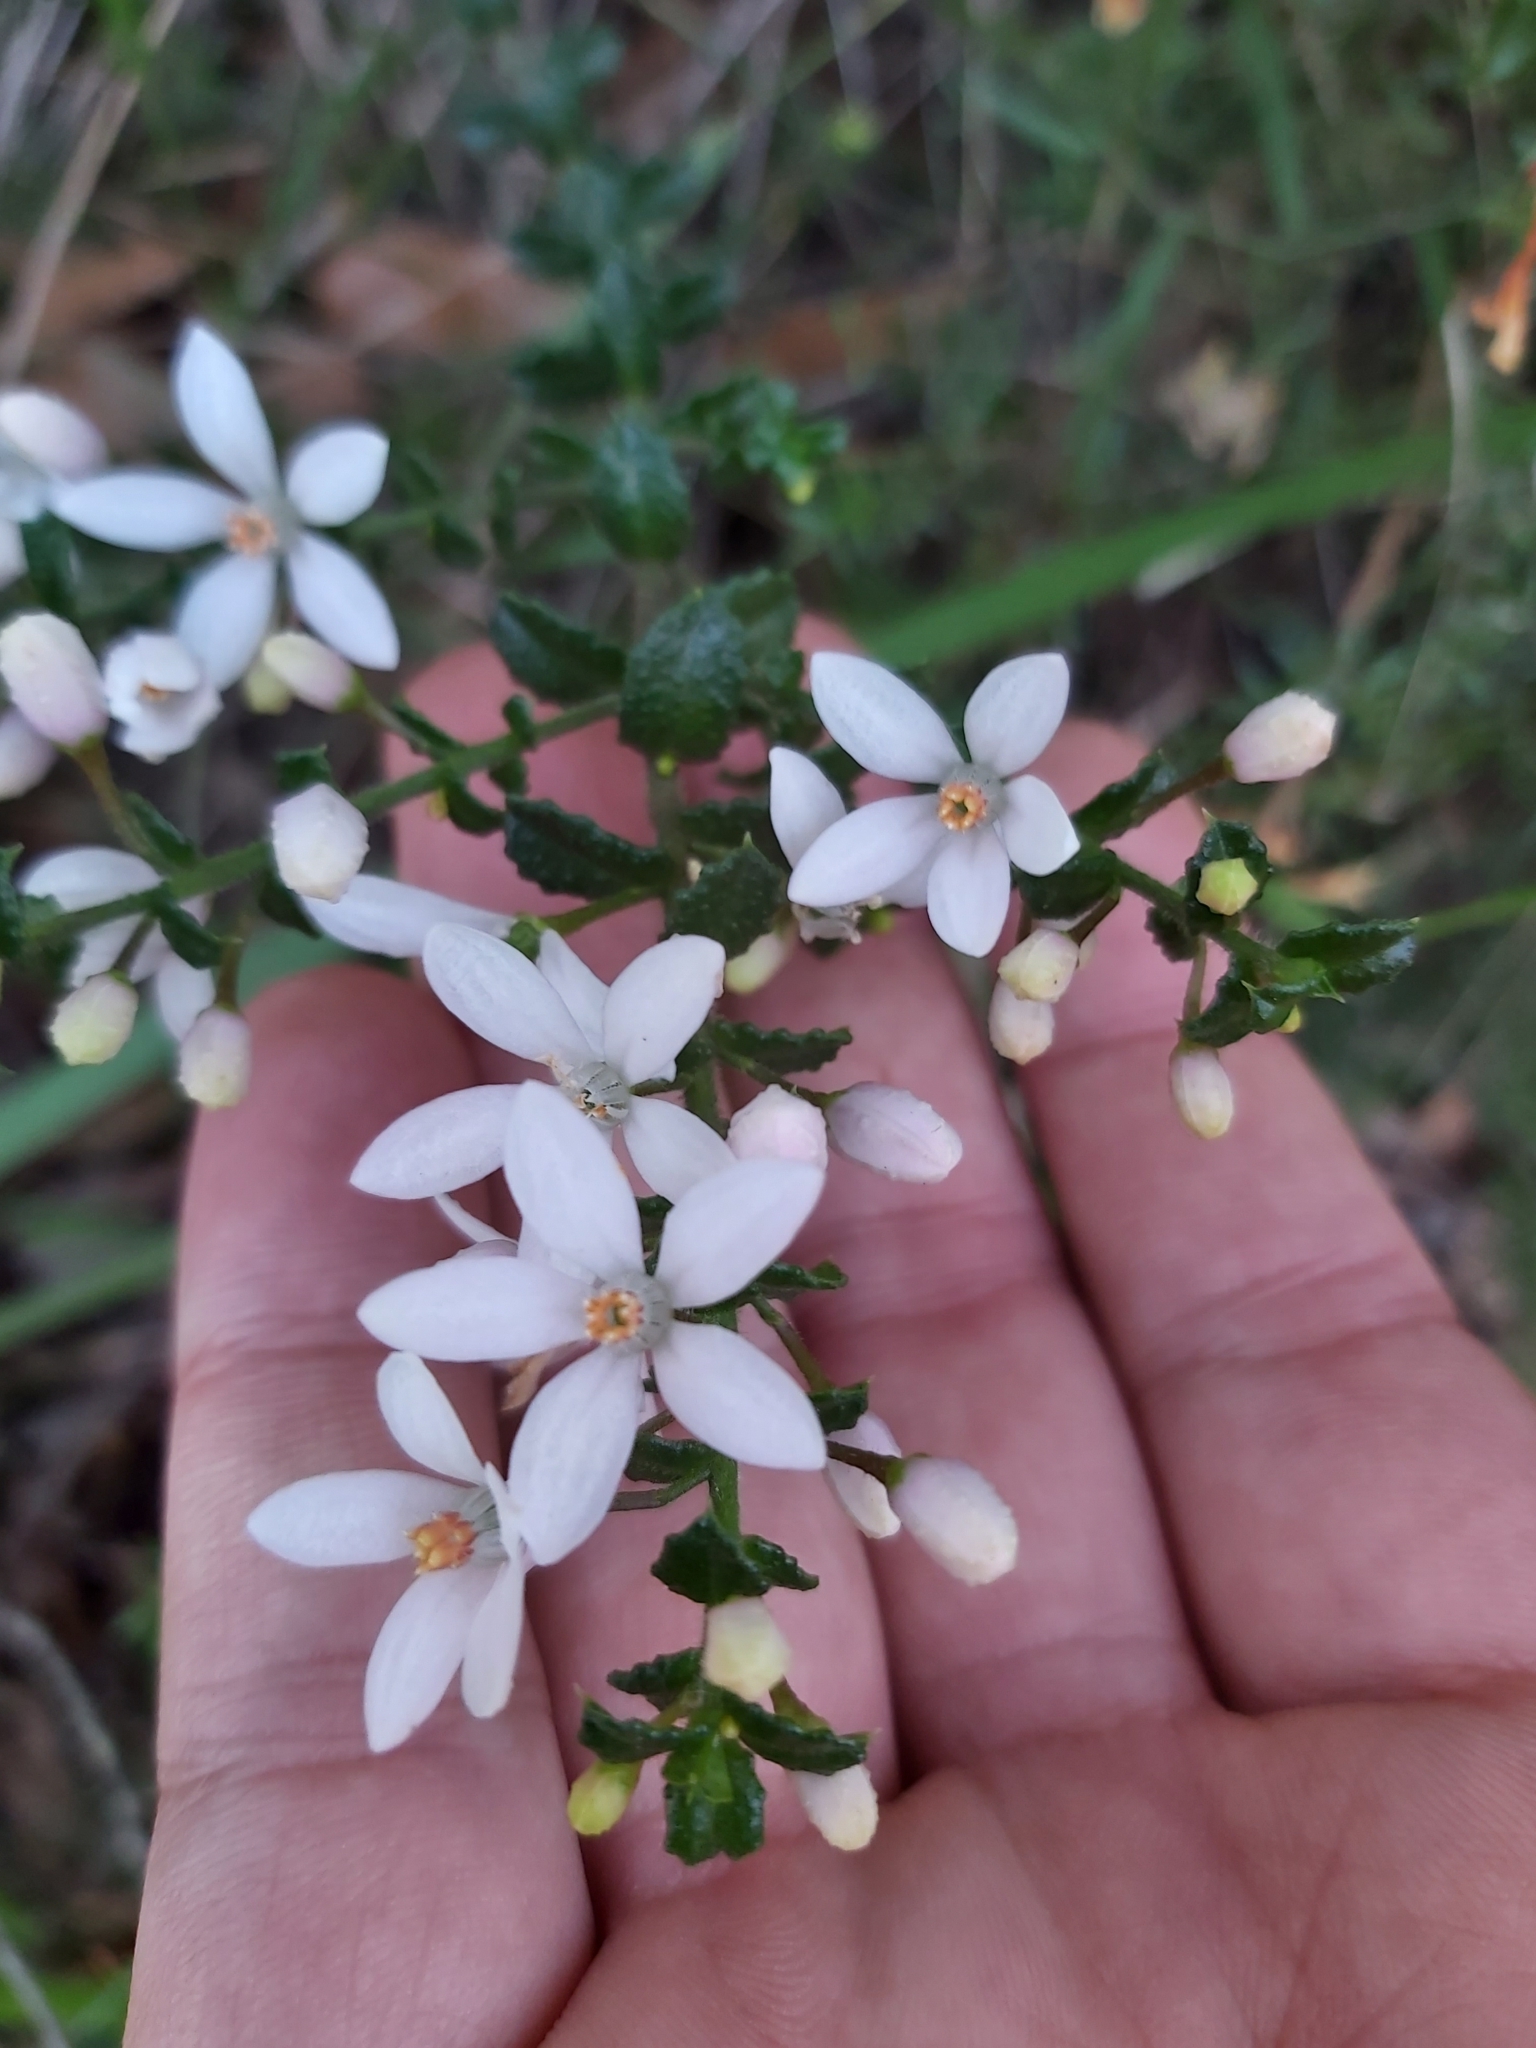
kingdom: Plantae
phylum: Tracheophyta
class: Magnoliopsida
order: Sapindales
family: Rutaceae
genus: Philotheca
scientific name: Philotheca hispidula
